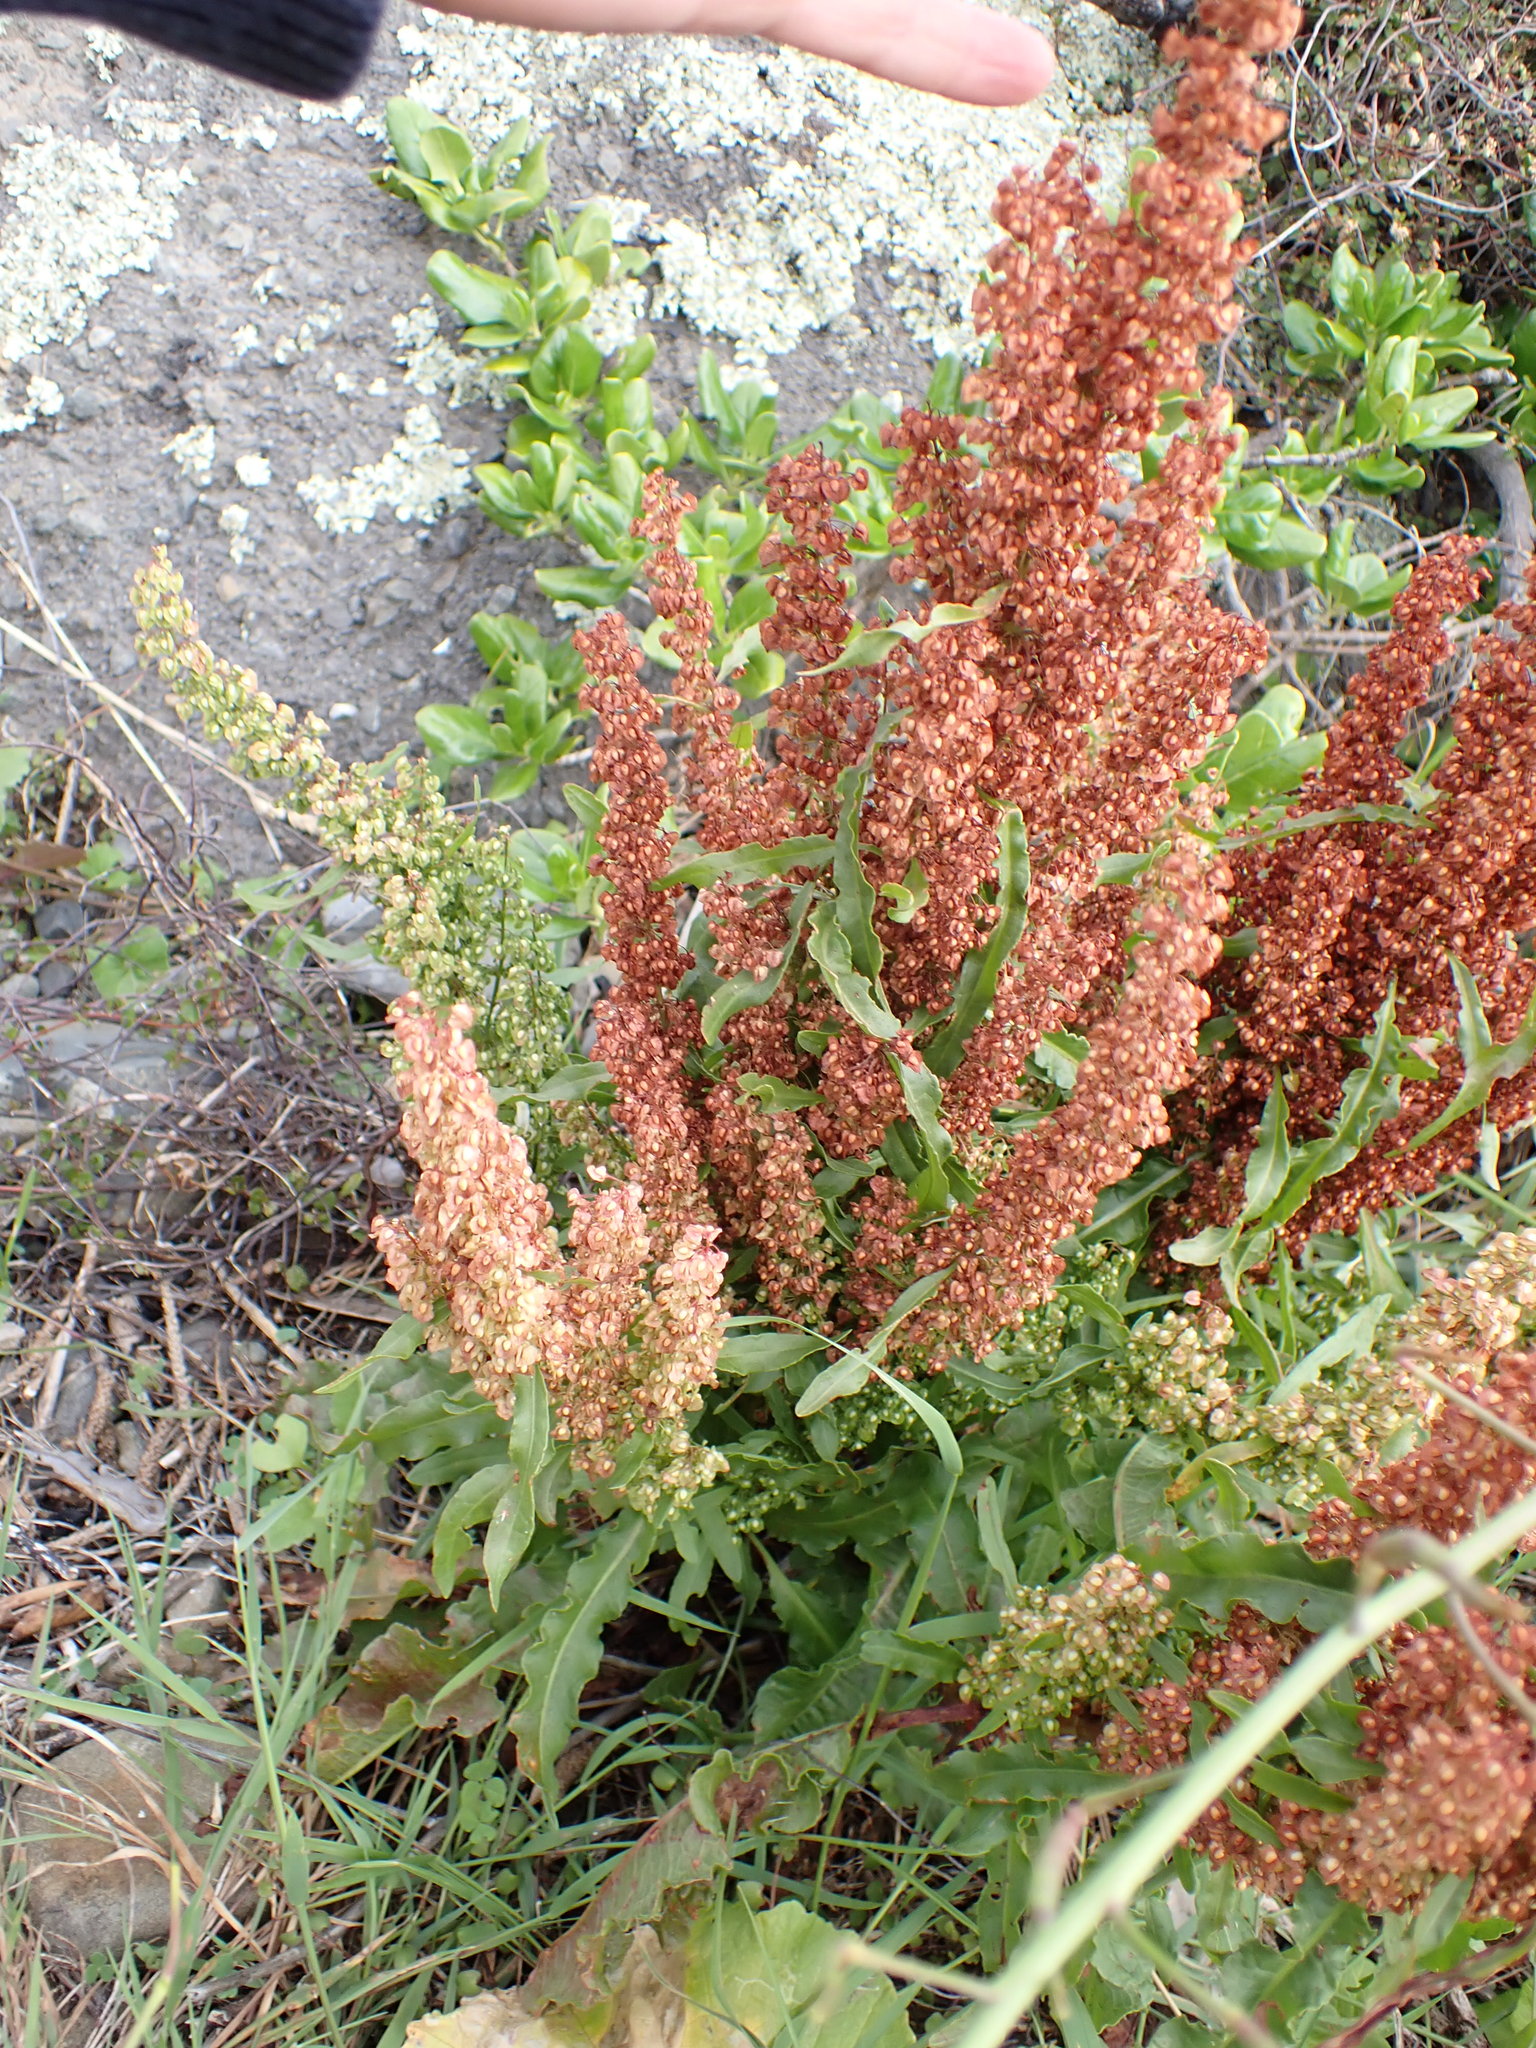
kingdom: Plantae
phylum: Tracheophyta
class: Magnoliopsida
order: Caryophyllales
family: Polygonaceae
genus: Rumex
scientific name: Rumex crispus
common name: Curled dock
